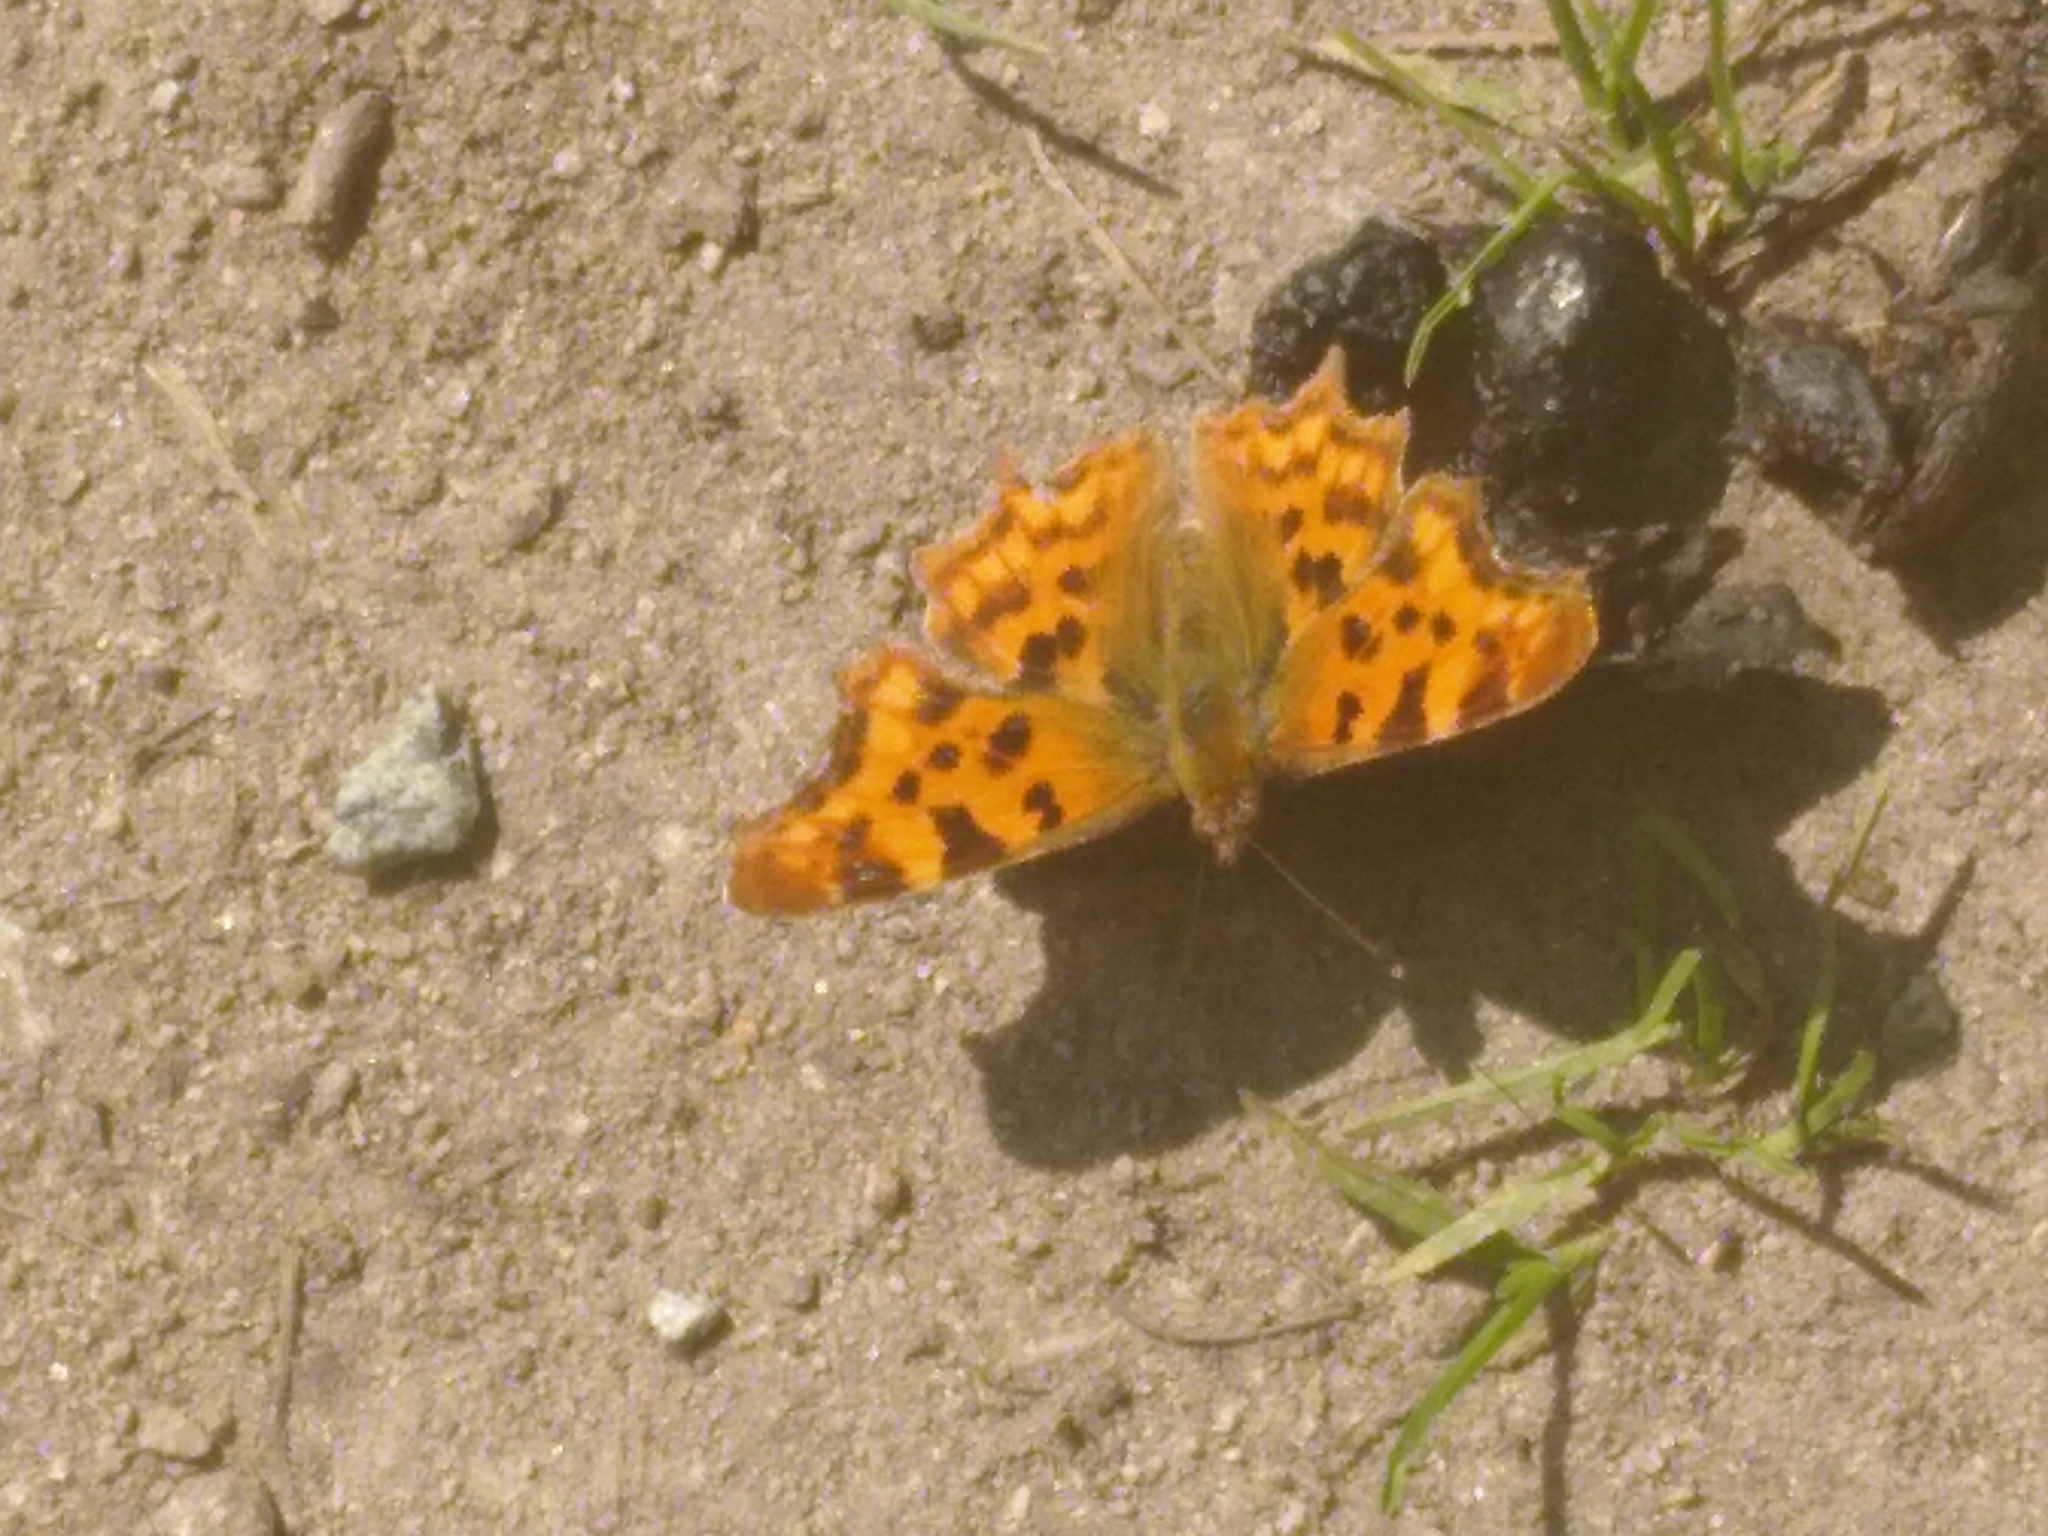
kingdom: Animalia
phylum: Arthropoda
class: Insecta
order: Lepidoptera
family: Nymphalidae
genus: Polygonia
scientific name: Polygonia c-album
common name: Comma
